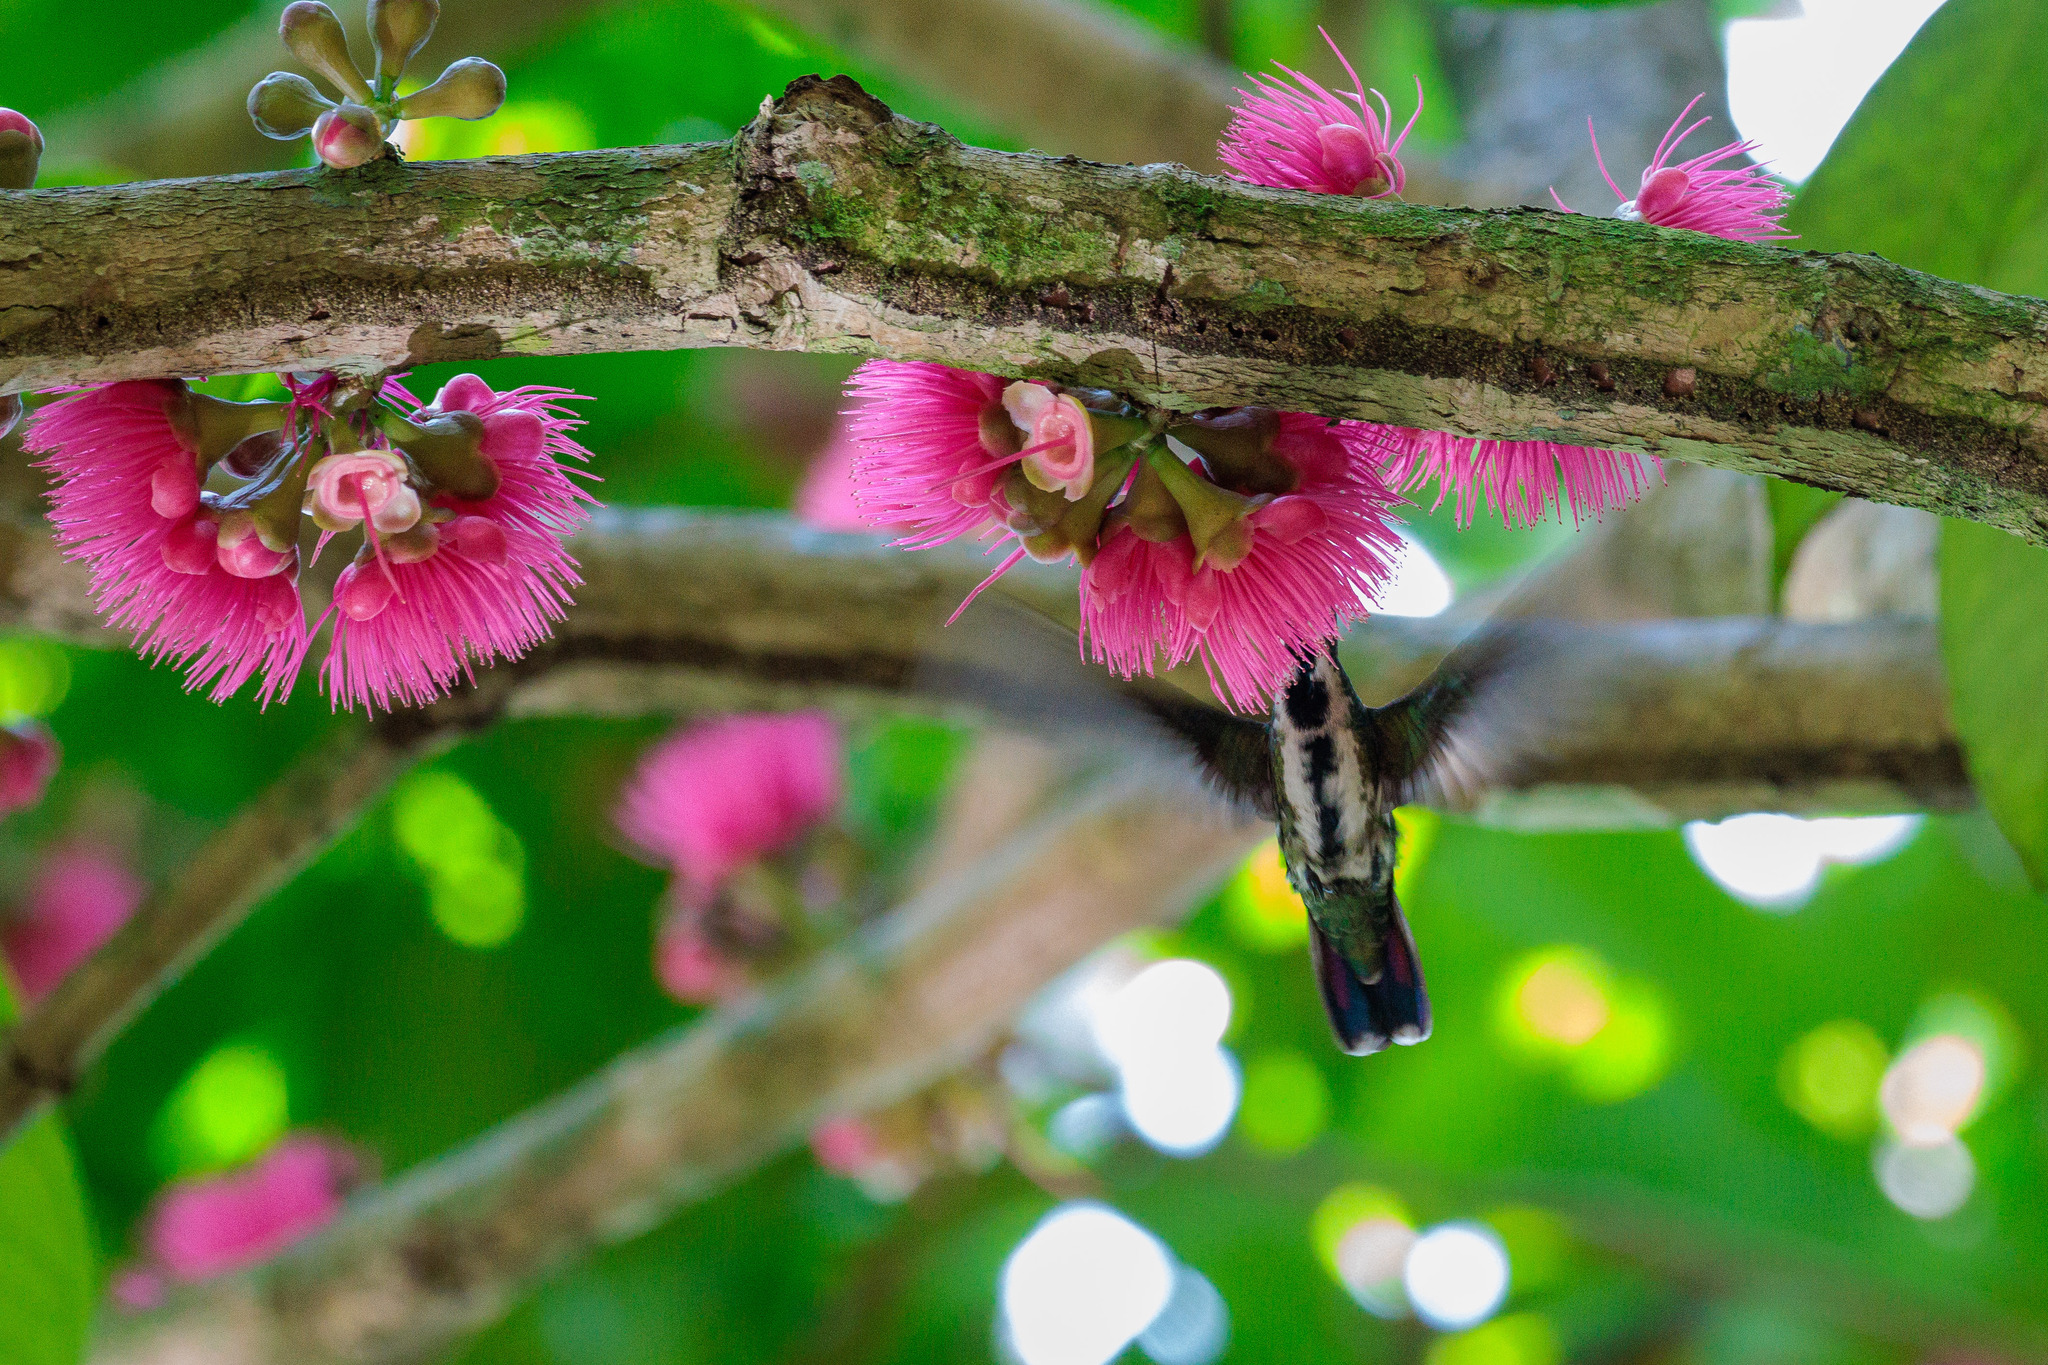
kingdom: Animalia
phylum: Chordata
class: Aves
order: Apodiformes
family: Trochilidae
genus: Anthracothorax
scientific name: Anthracothorax nigricollis
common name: Black-throated mango
